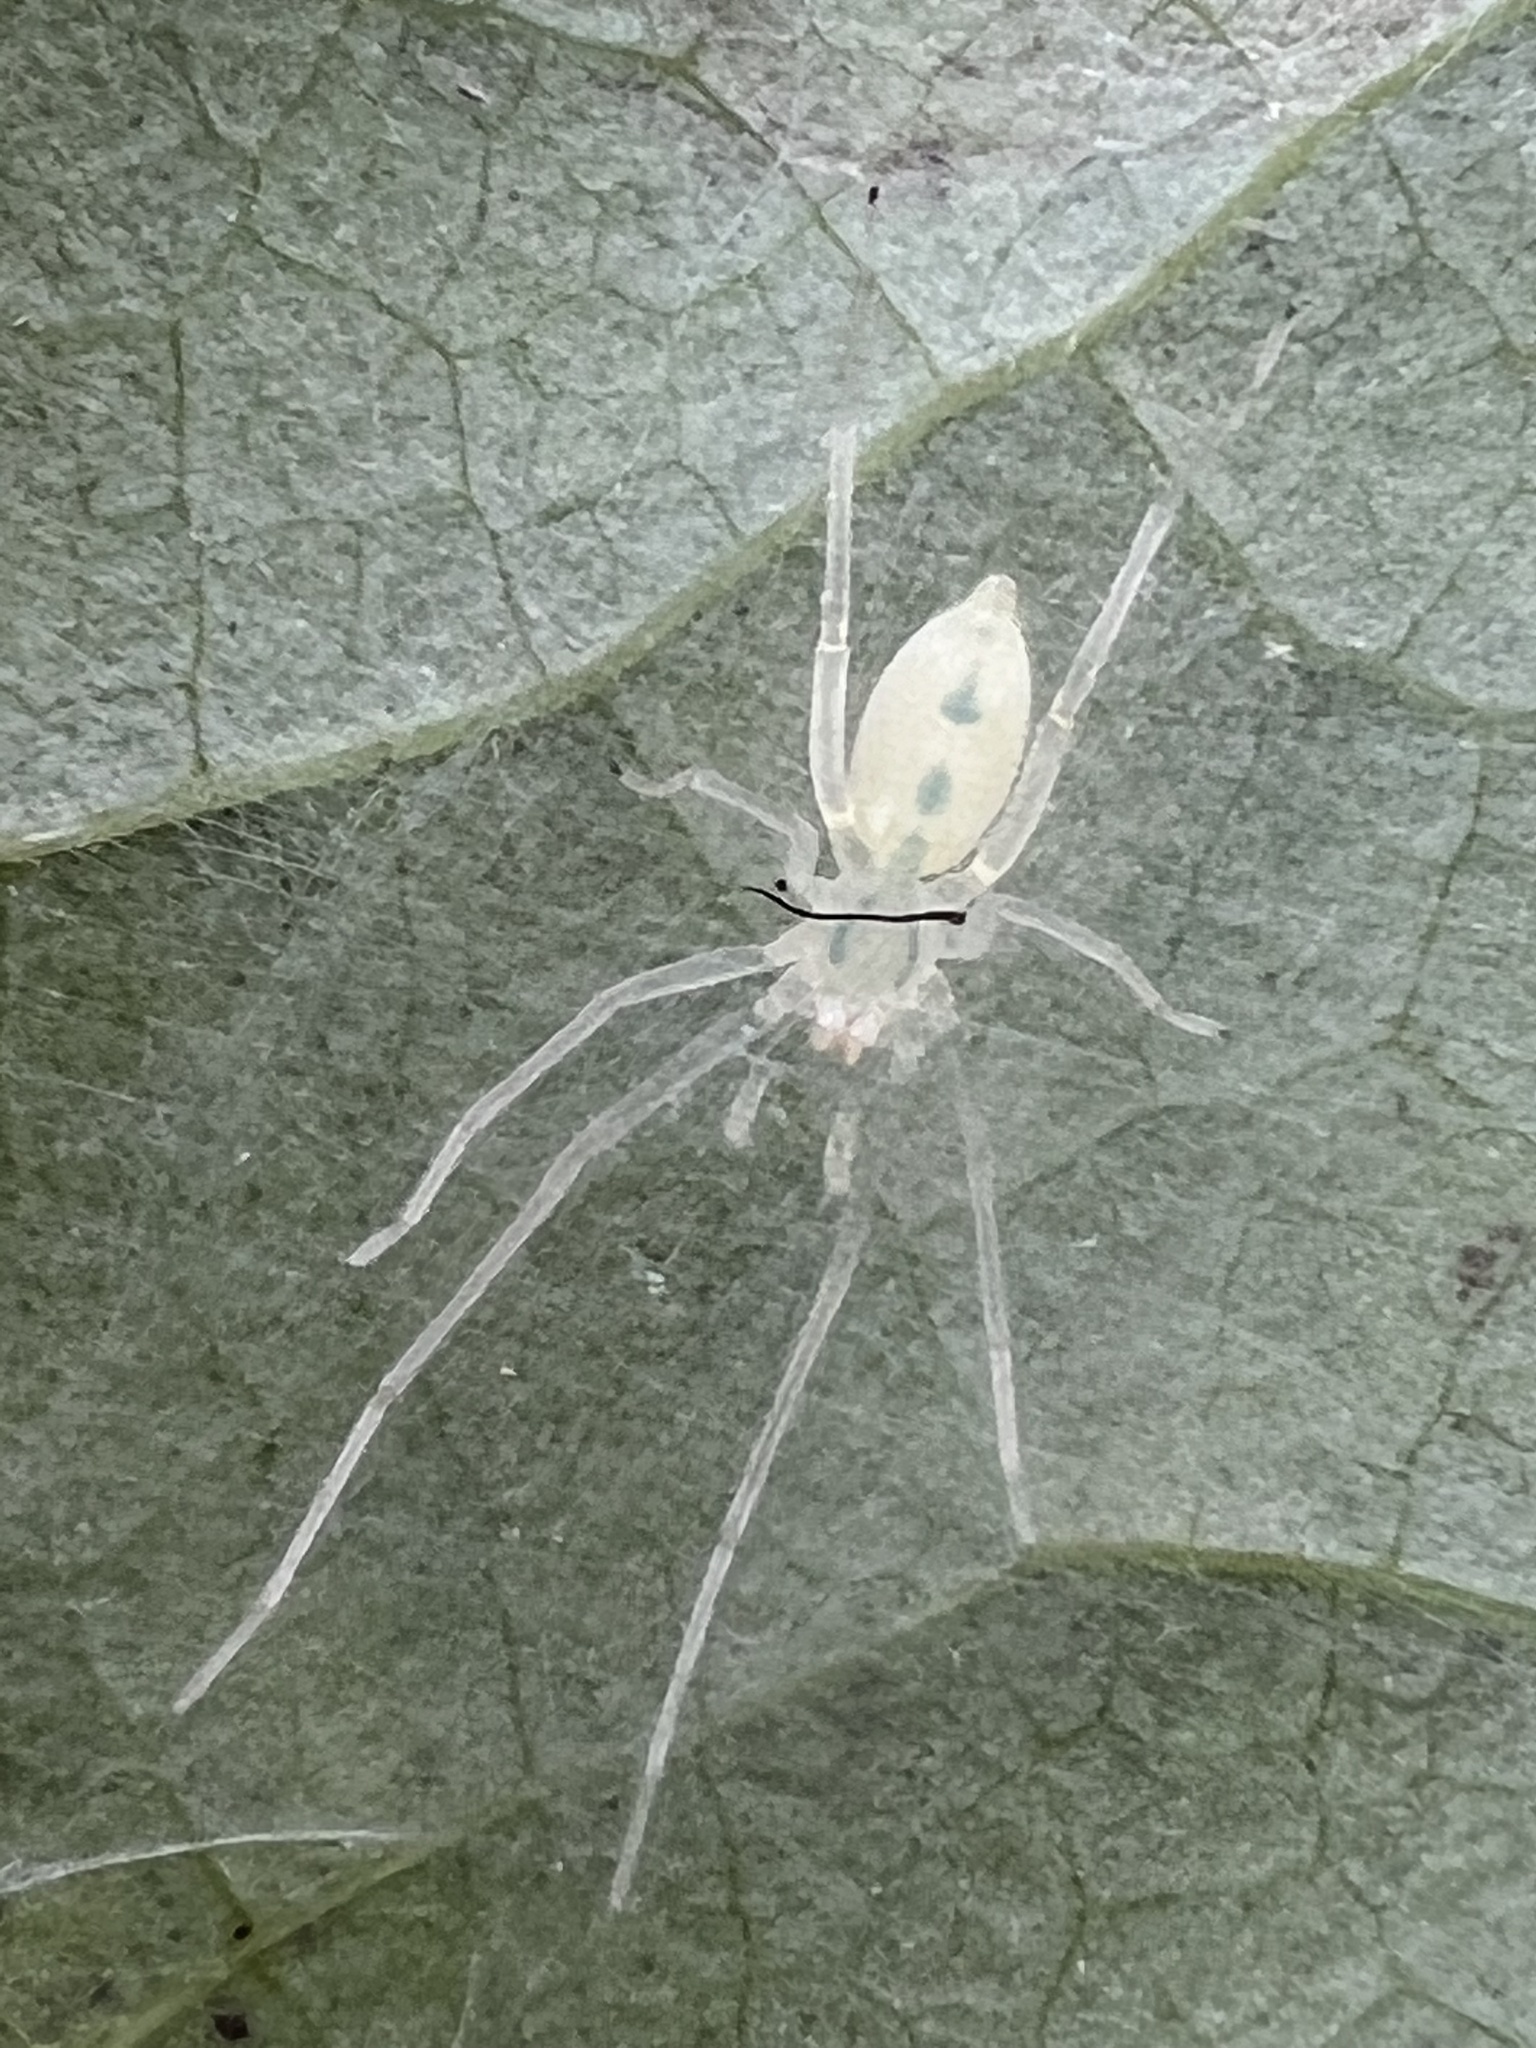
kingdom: Animalia
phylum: Arthropoda
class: Arachnida
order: Araneae
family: Anyphaenidae
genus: Wulfila
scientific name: Wulfila albens
